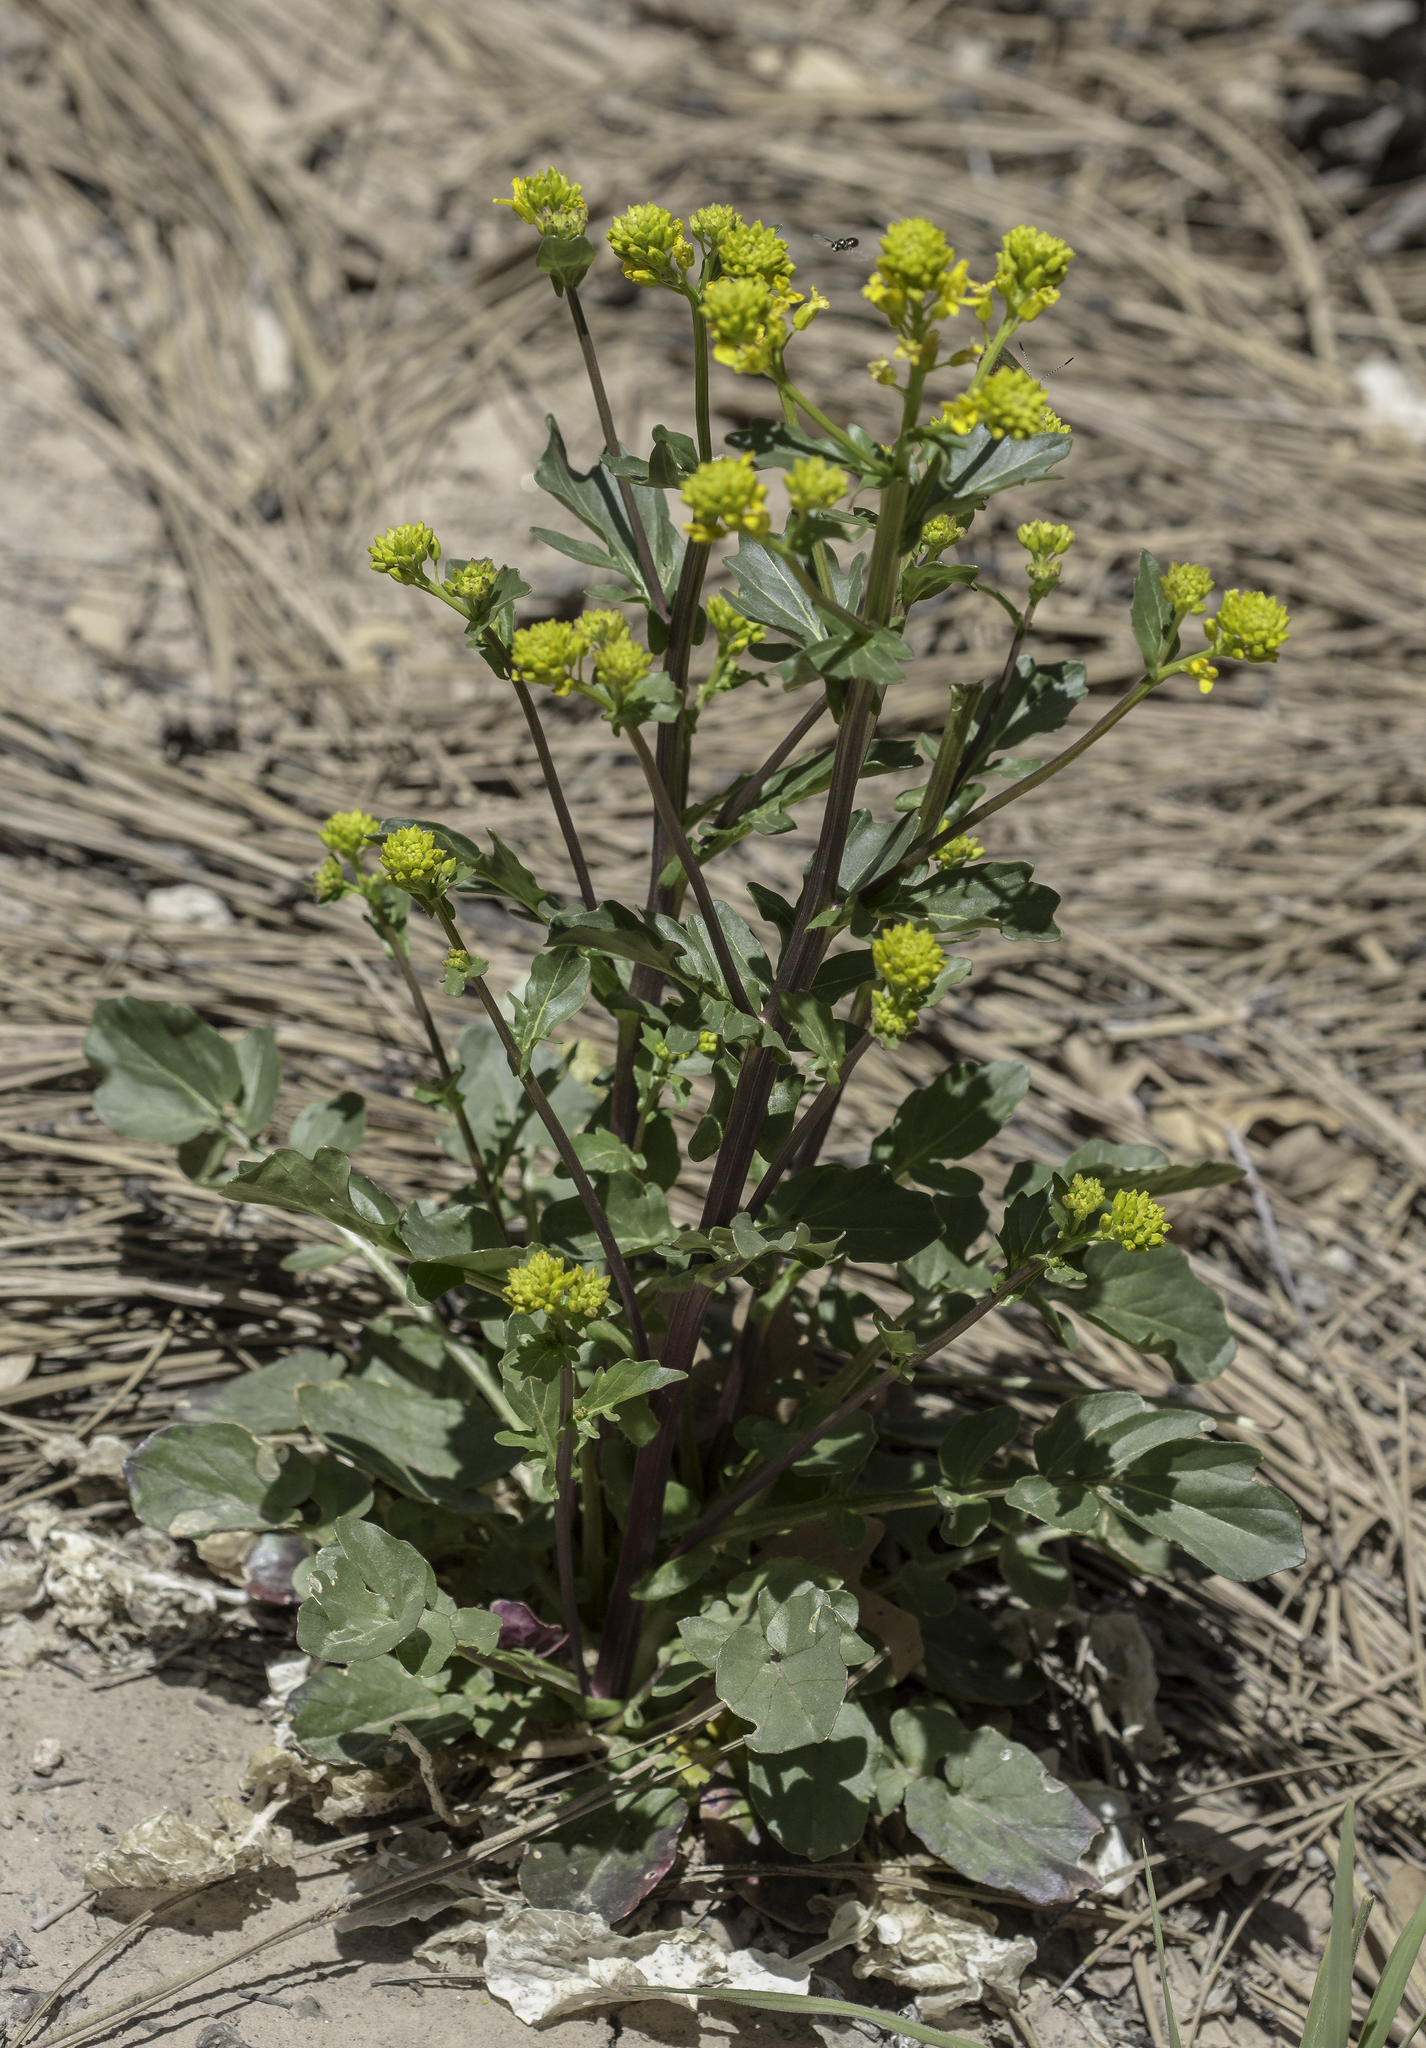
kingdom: Plantae
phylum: Tracheophyta
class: Magnoliopsida
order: Brassicales
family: Brassicaceae
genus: Barbarea
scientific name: Barbarea vulgaris
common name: Cressy-greens
